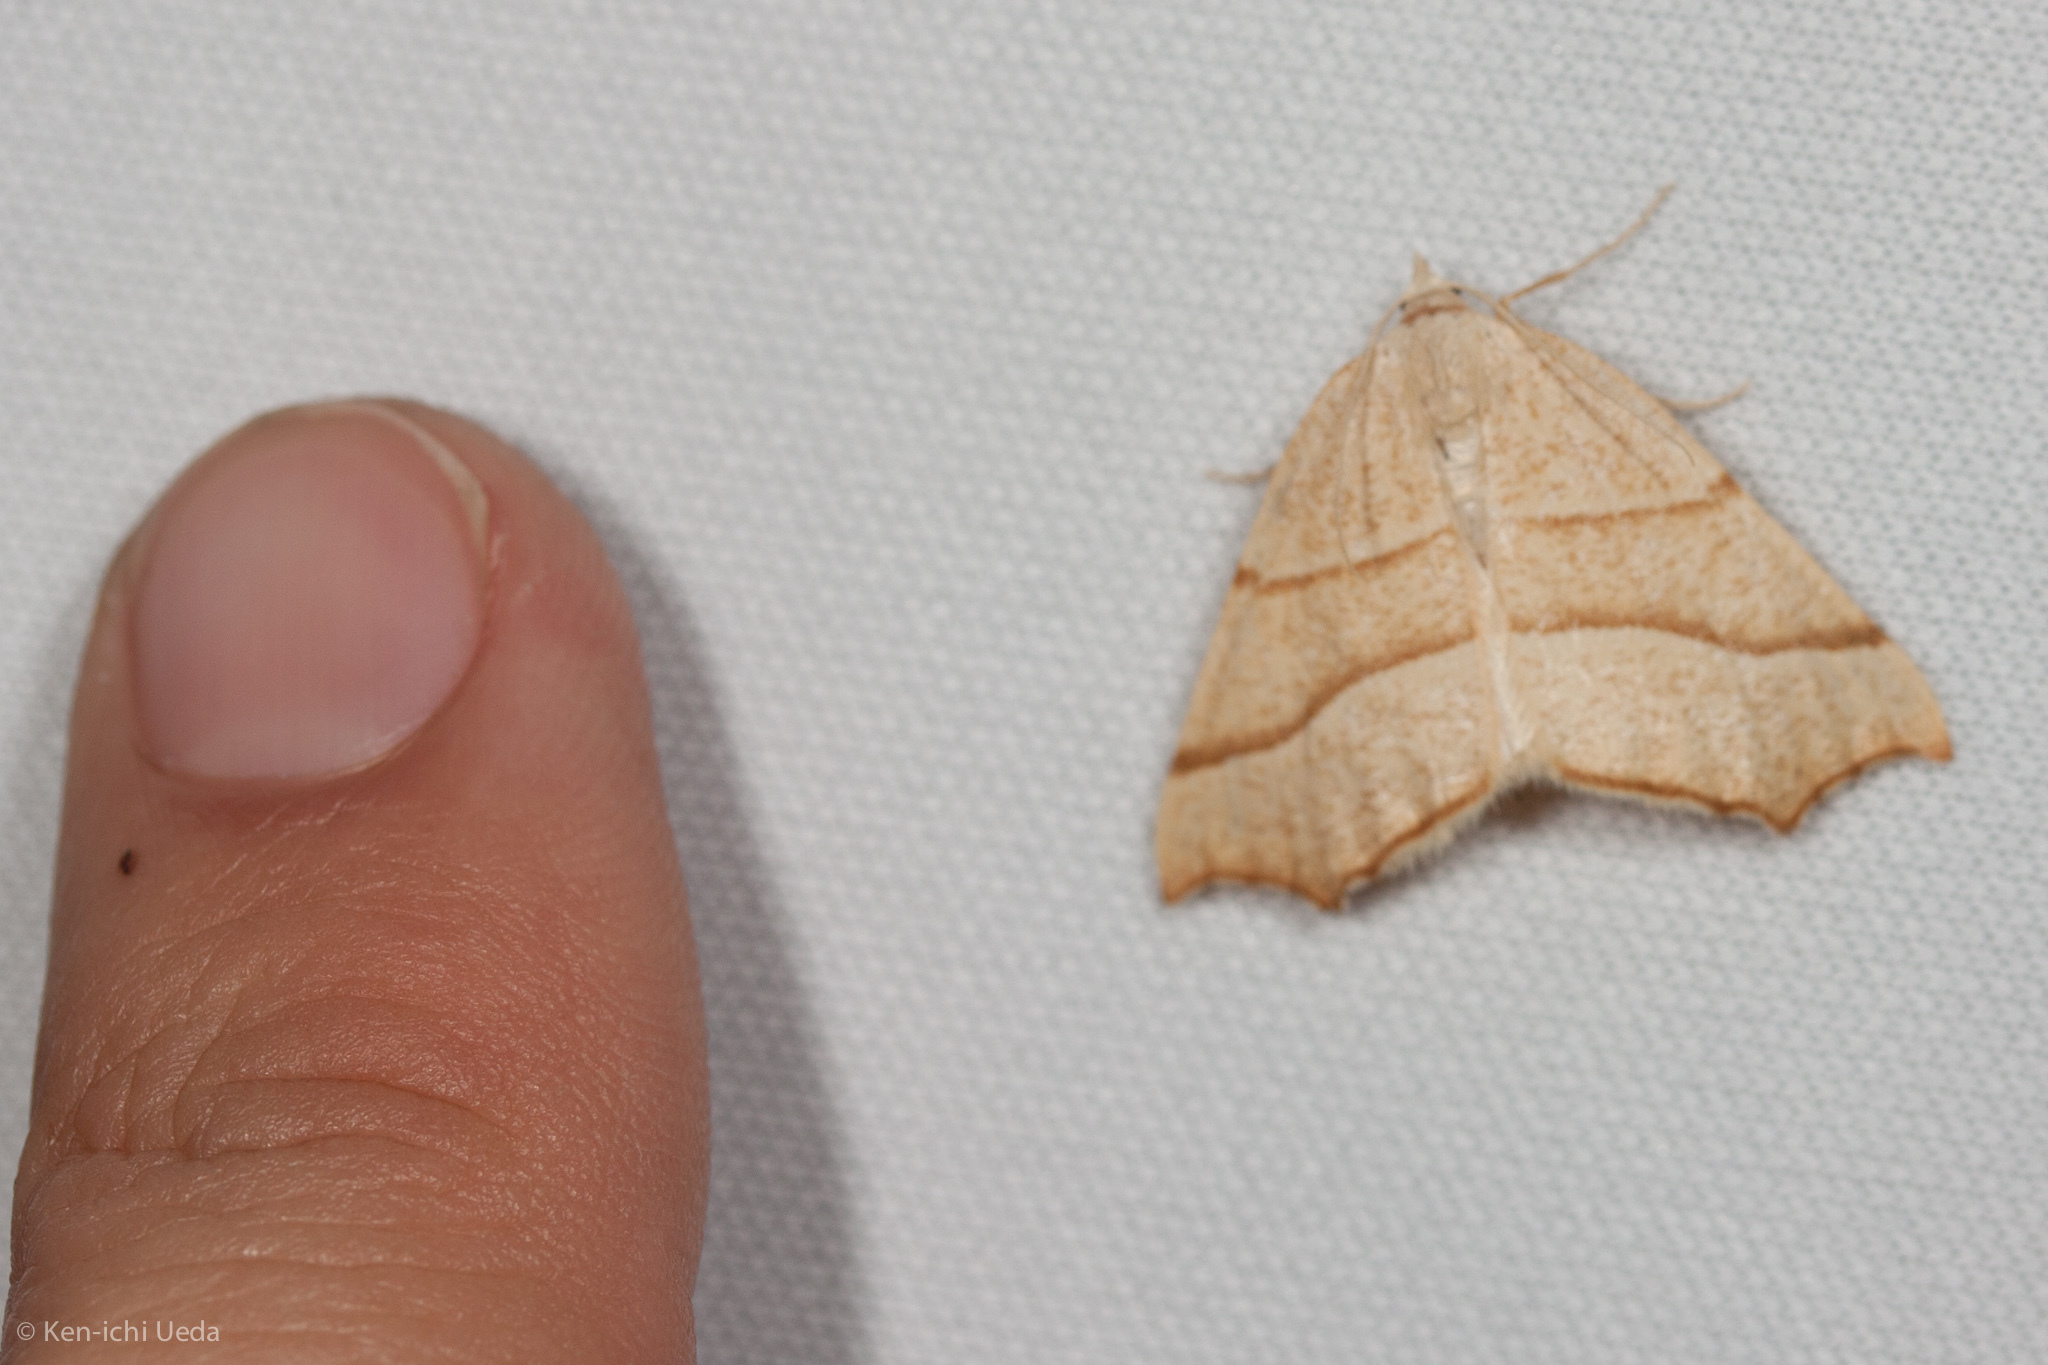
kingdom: Animalia
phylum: Arthropoda
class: Insecta
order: Lepidoptera
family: Geometridae
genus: Pherne
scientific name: Pherne subpunctata
